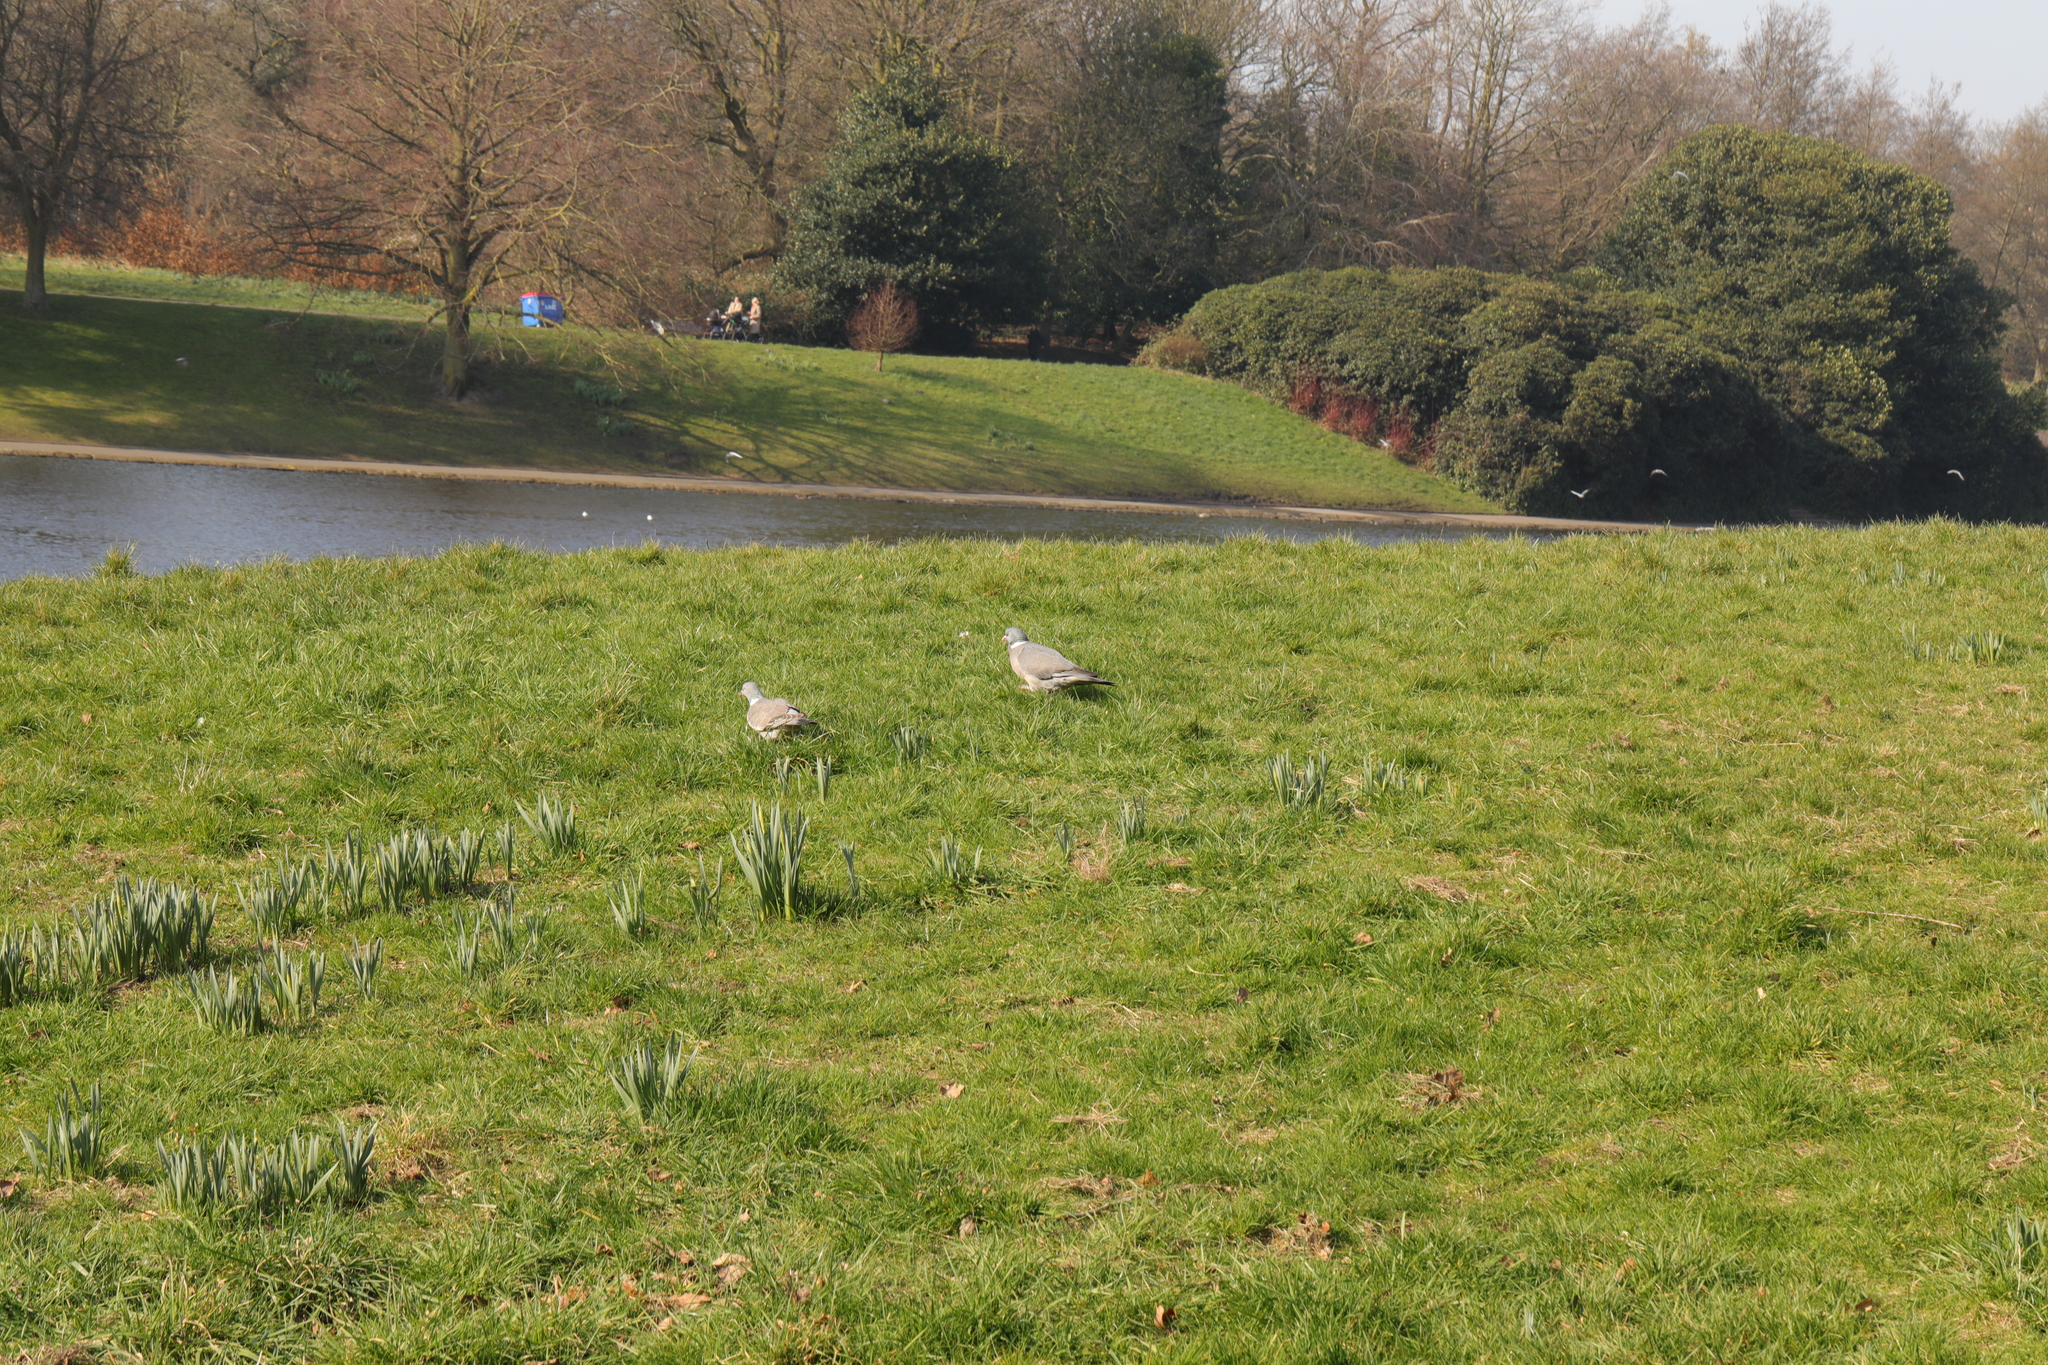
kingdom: Animalia
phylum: Chordata
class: Aves
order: Columbiformes
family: Columbidae
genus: Columba
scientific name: Columba palumbus
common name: Common wood pigeon
